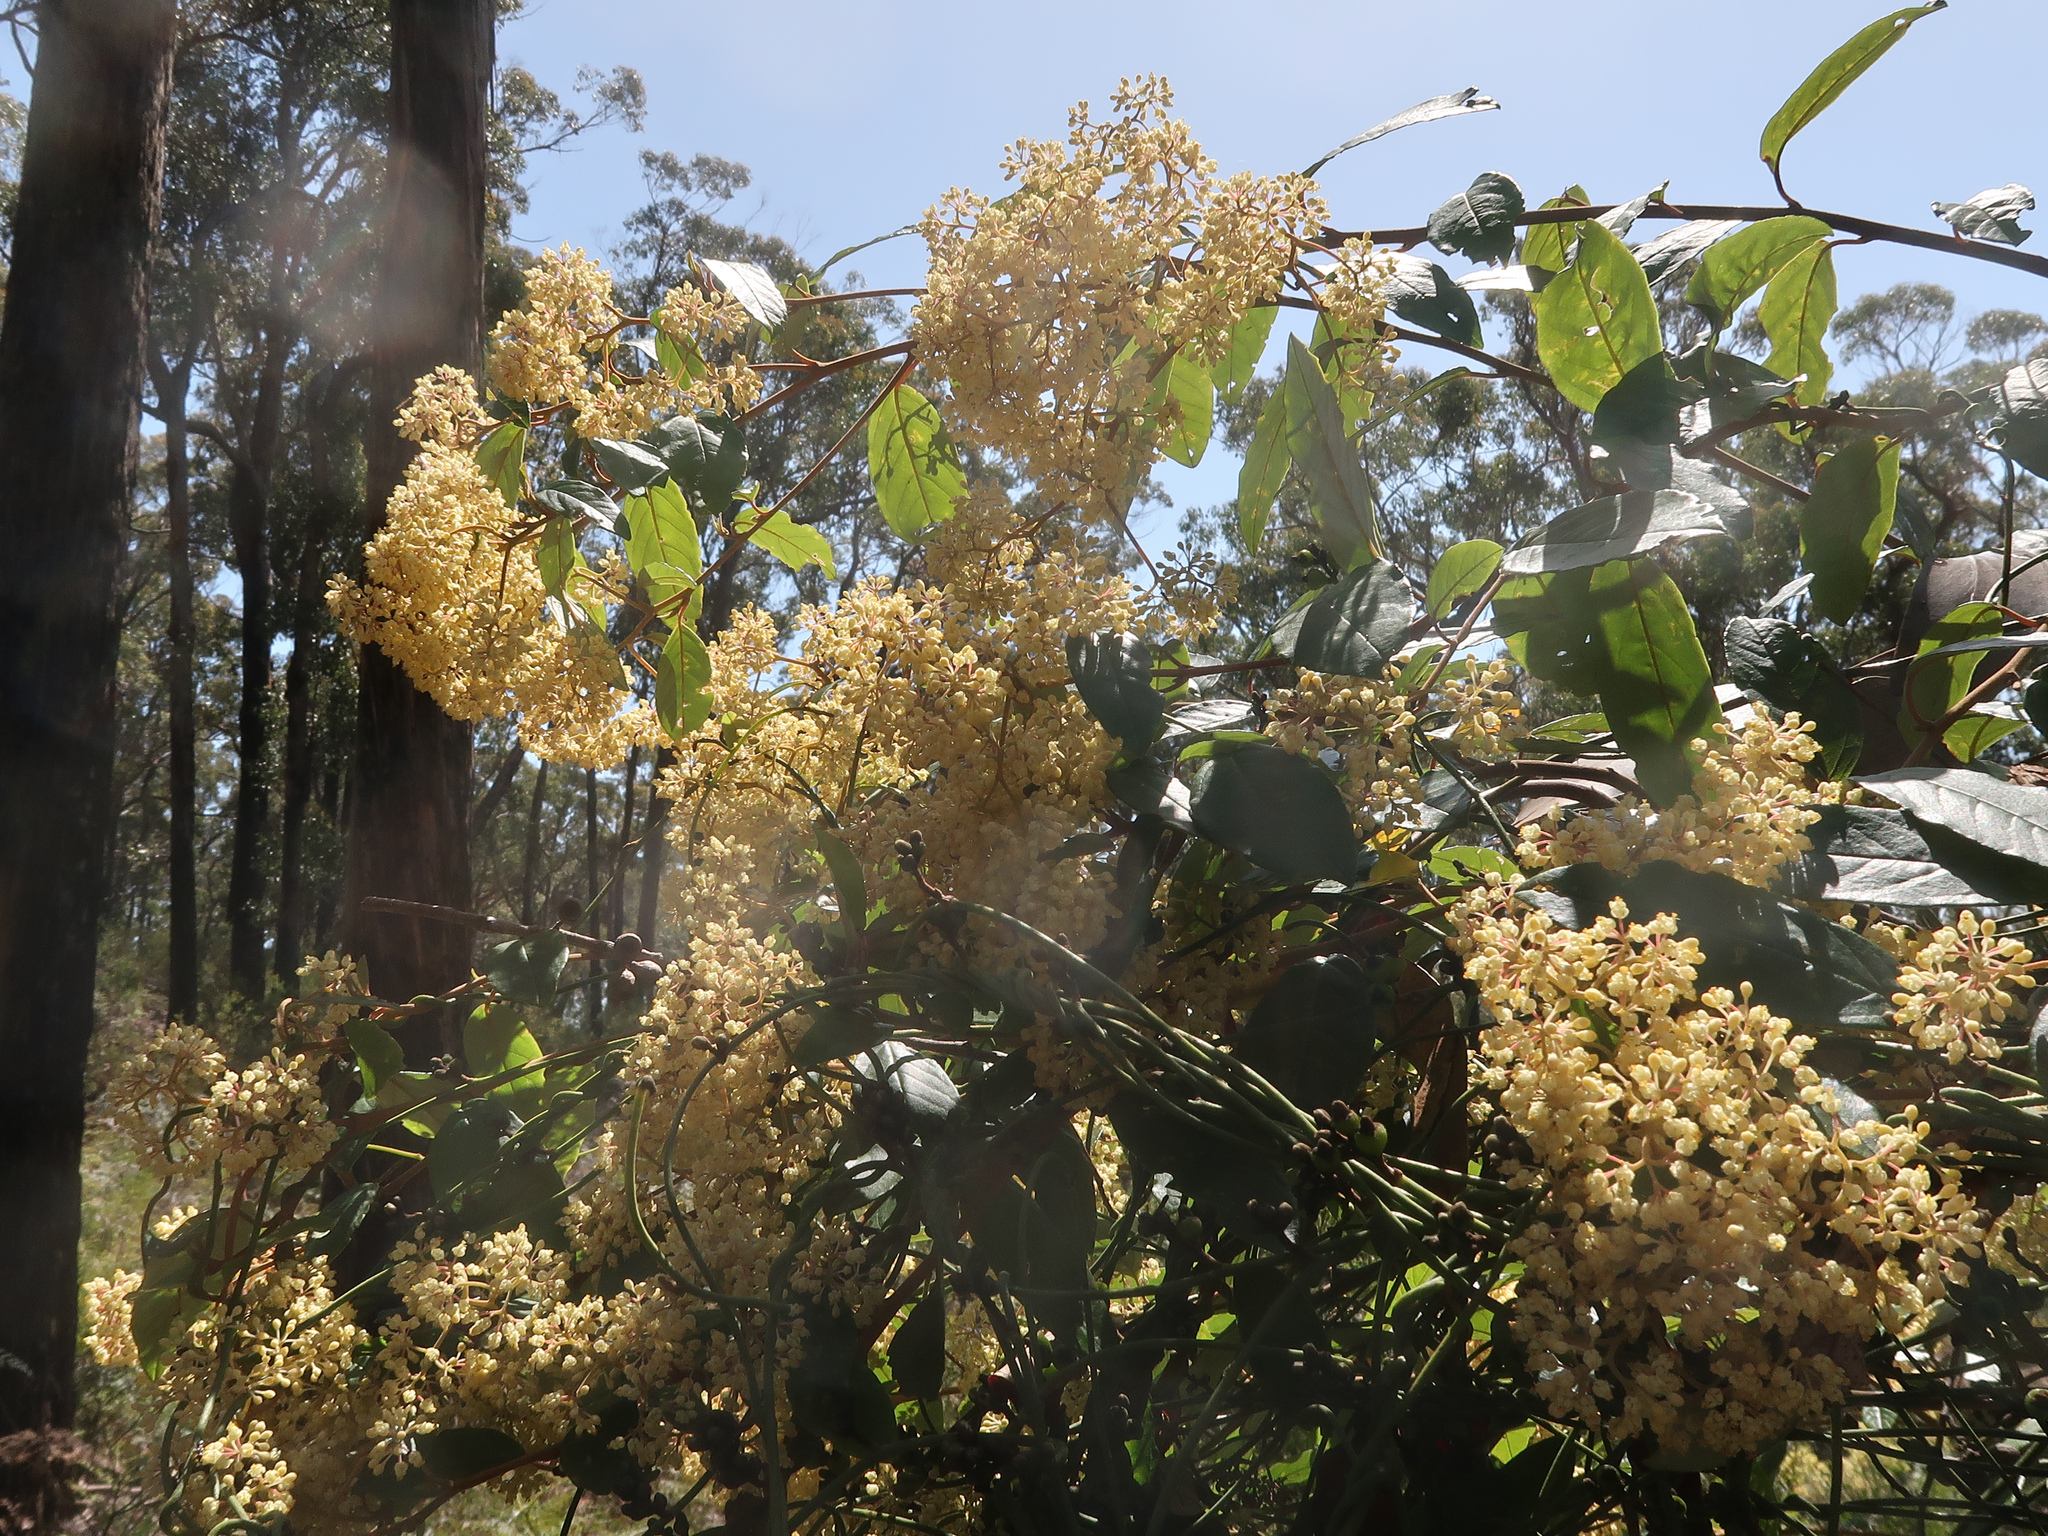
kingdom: Plantae
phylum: Tracheophyta
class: Magnoliopsida
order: Rosales
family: Rhamnaceae
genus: Pomaderris
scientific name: Pomaderris elliptica
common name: Yellow-dogwood
